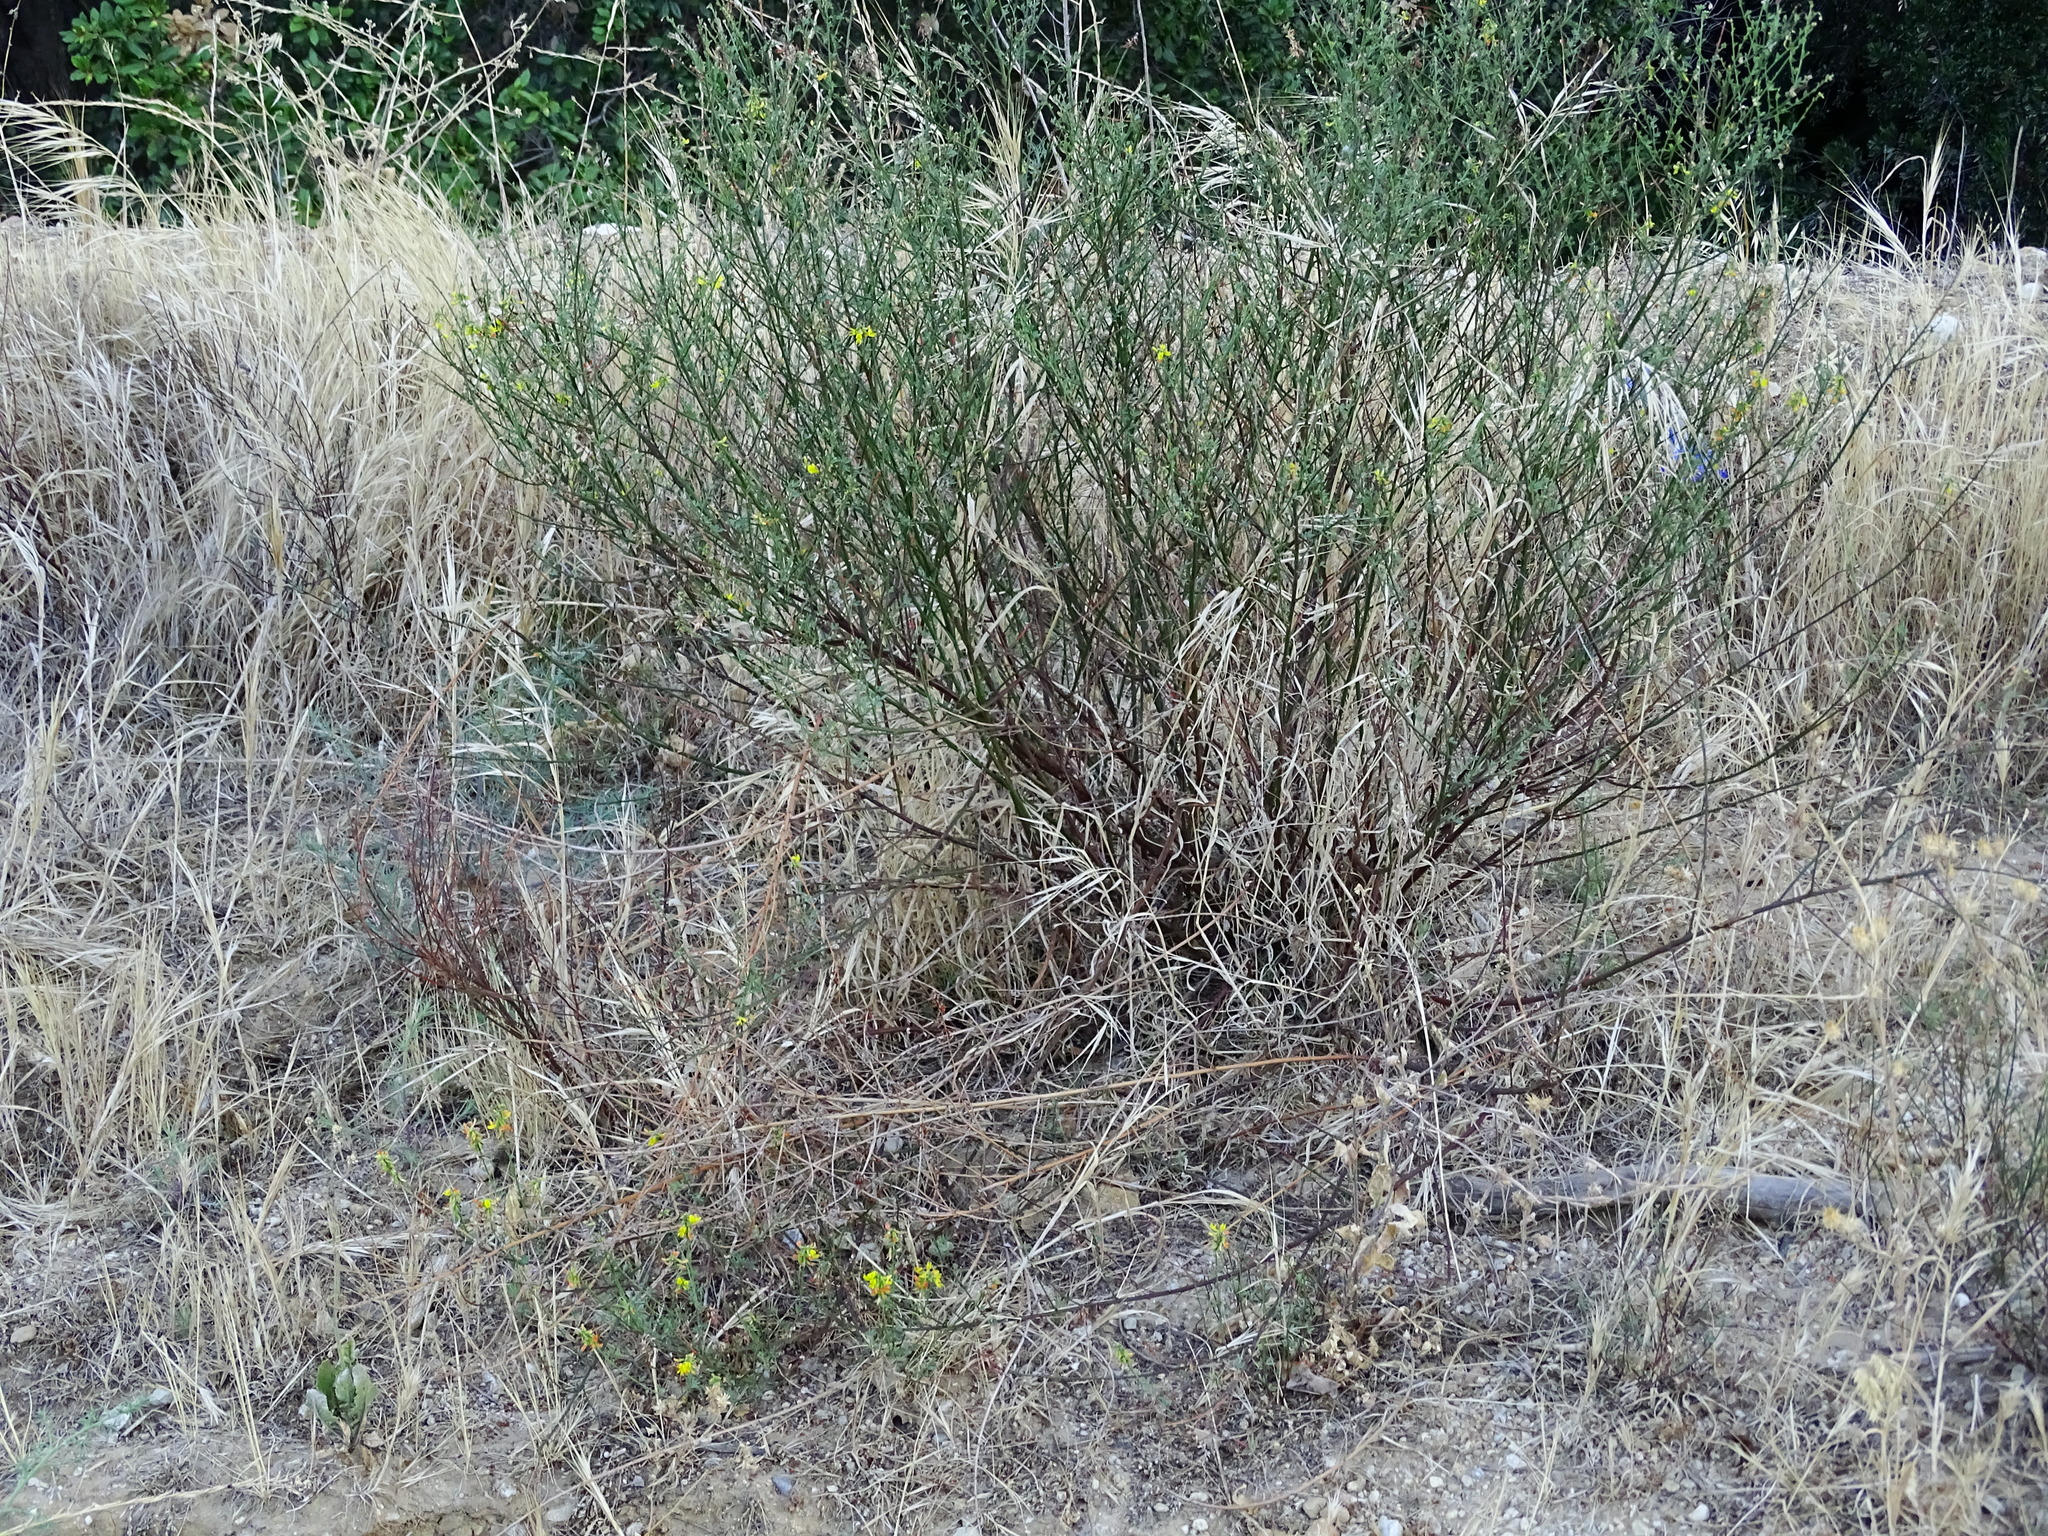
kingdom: Plantae
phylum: Tracheophyta
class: Magnoliopsida
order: Fabales
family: Fabaceae
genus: Acmispon
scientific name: Acmispon glaber
